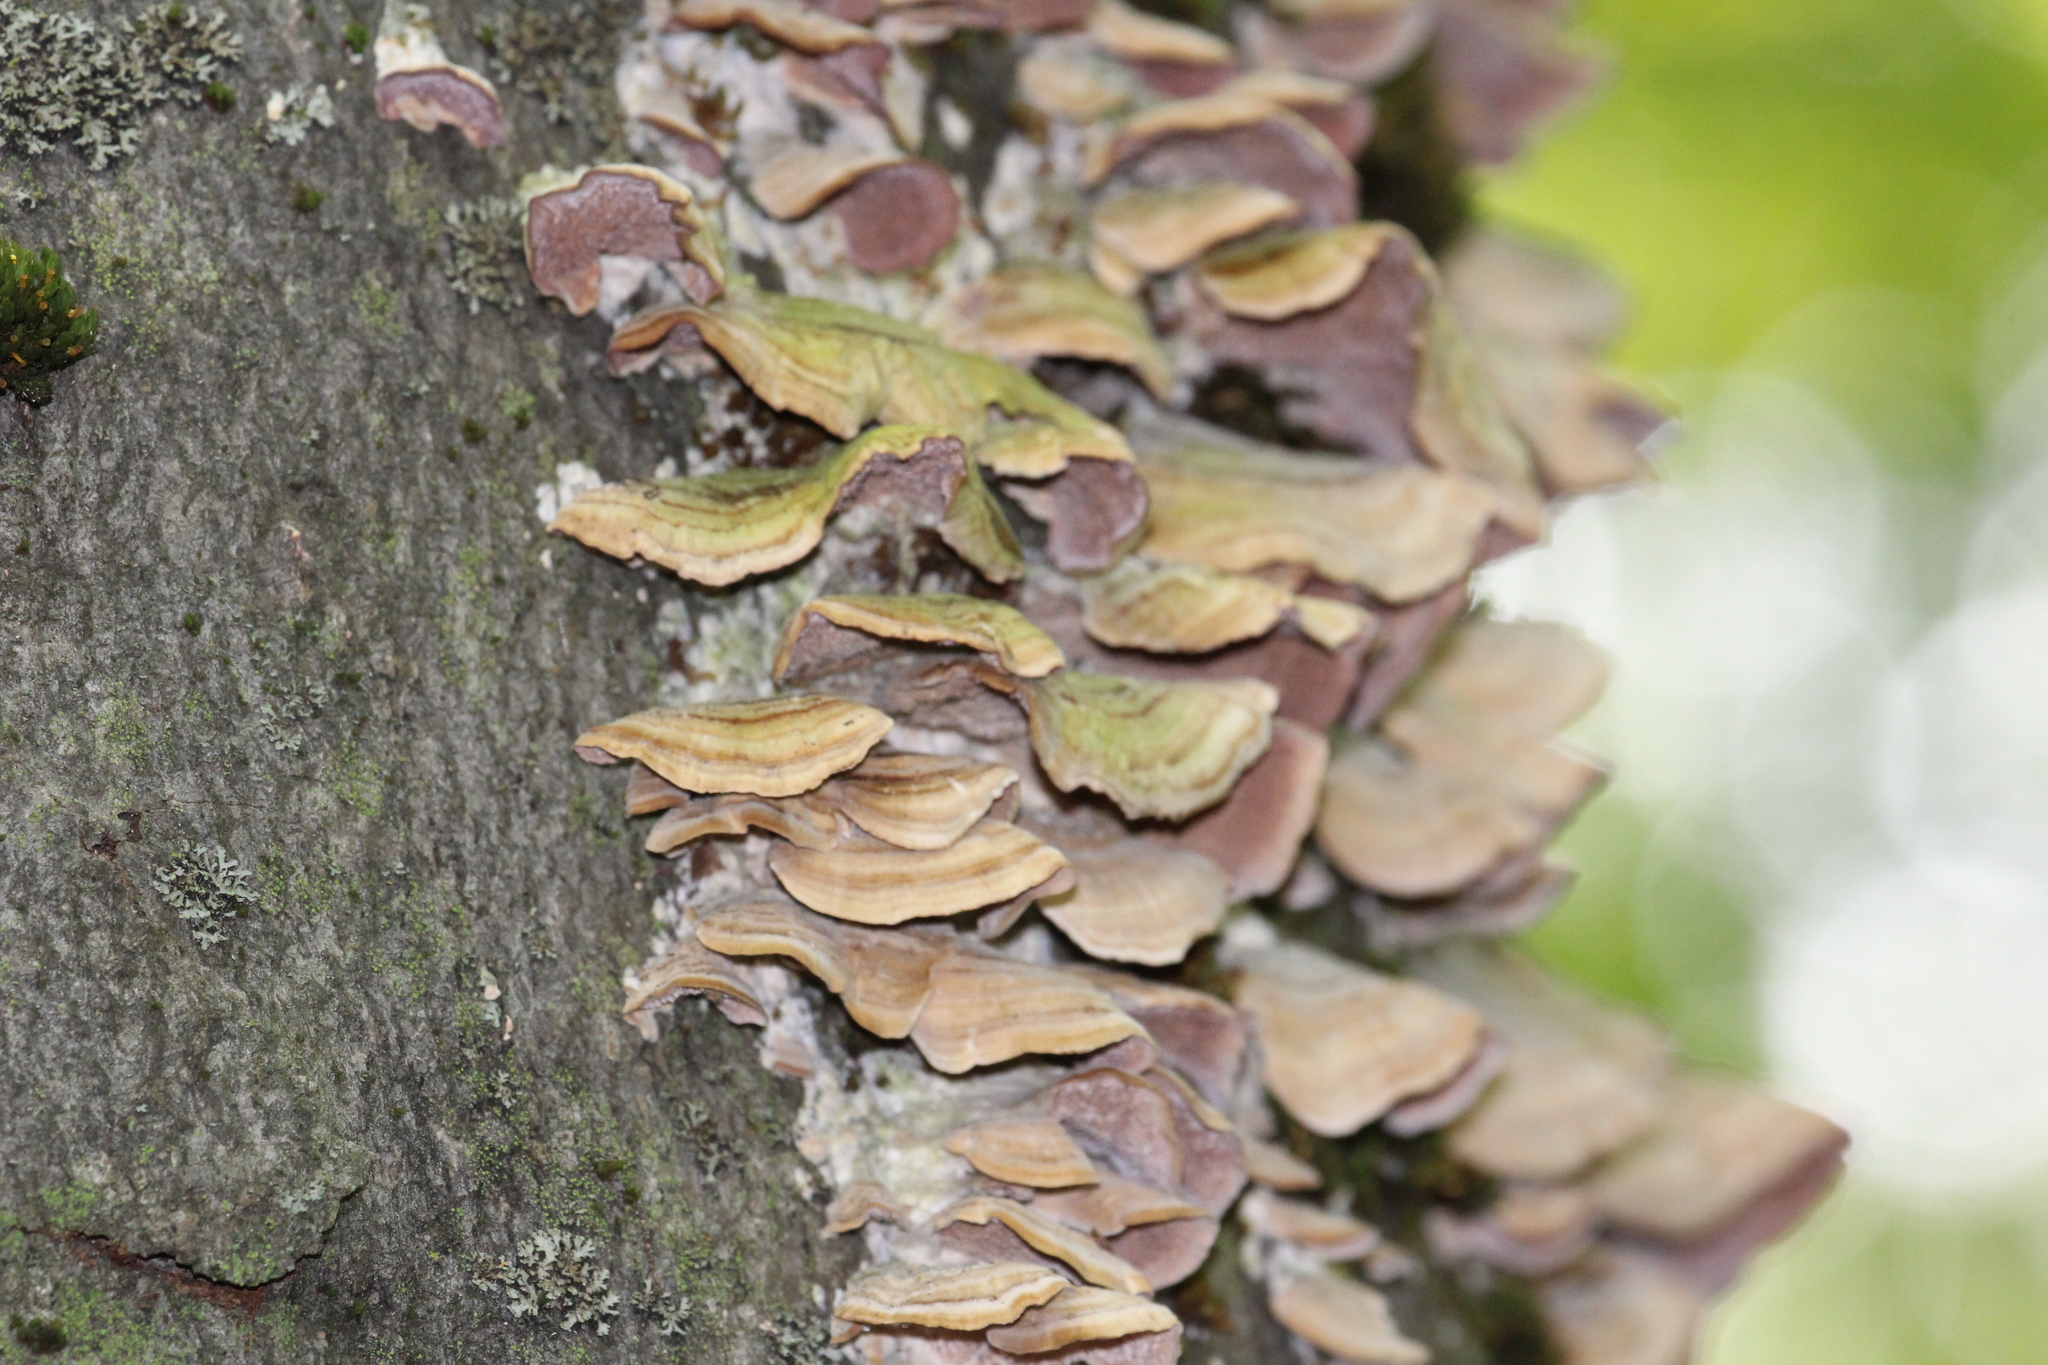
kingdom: Fungi
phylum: Basidiomycota
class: Agaricomycetes
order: Hymenochaetales
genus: Trichaptum
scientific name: Trichaptum biforme
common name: Violet-toothed polypore
